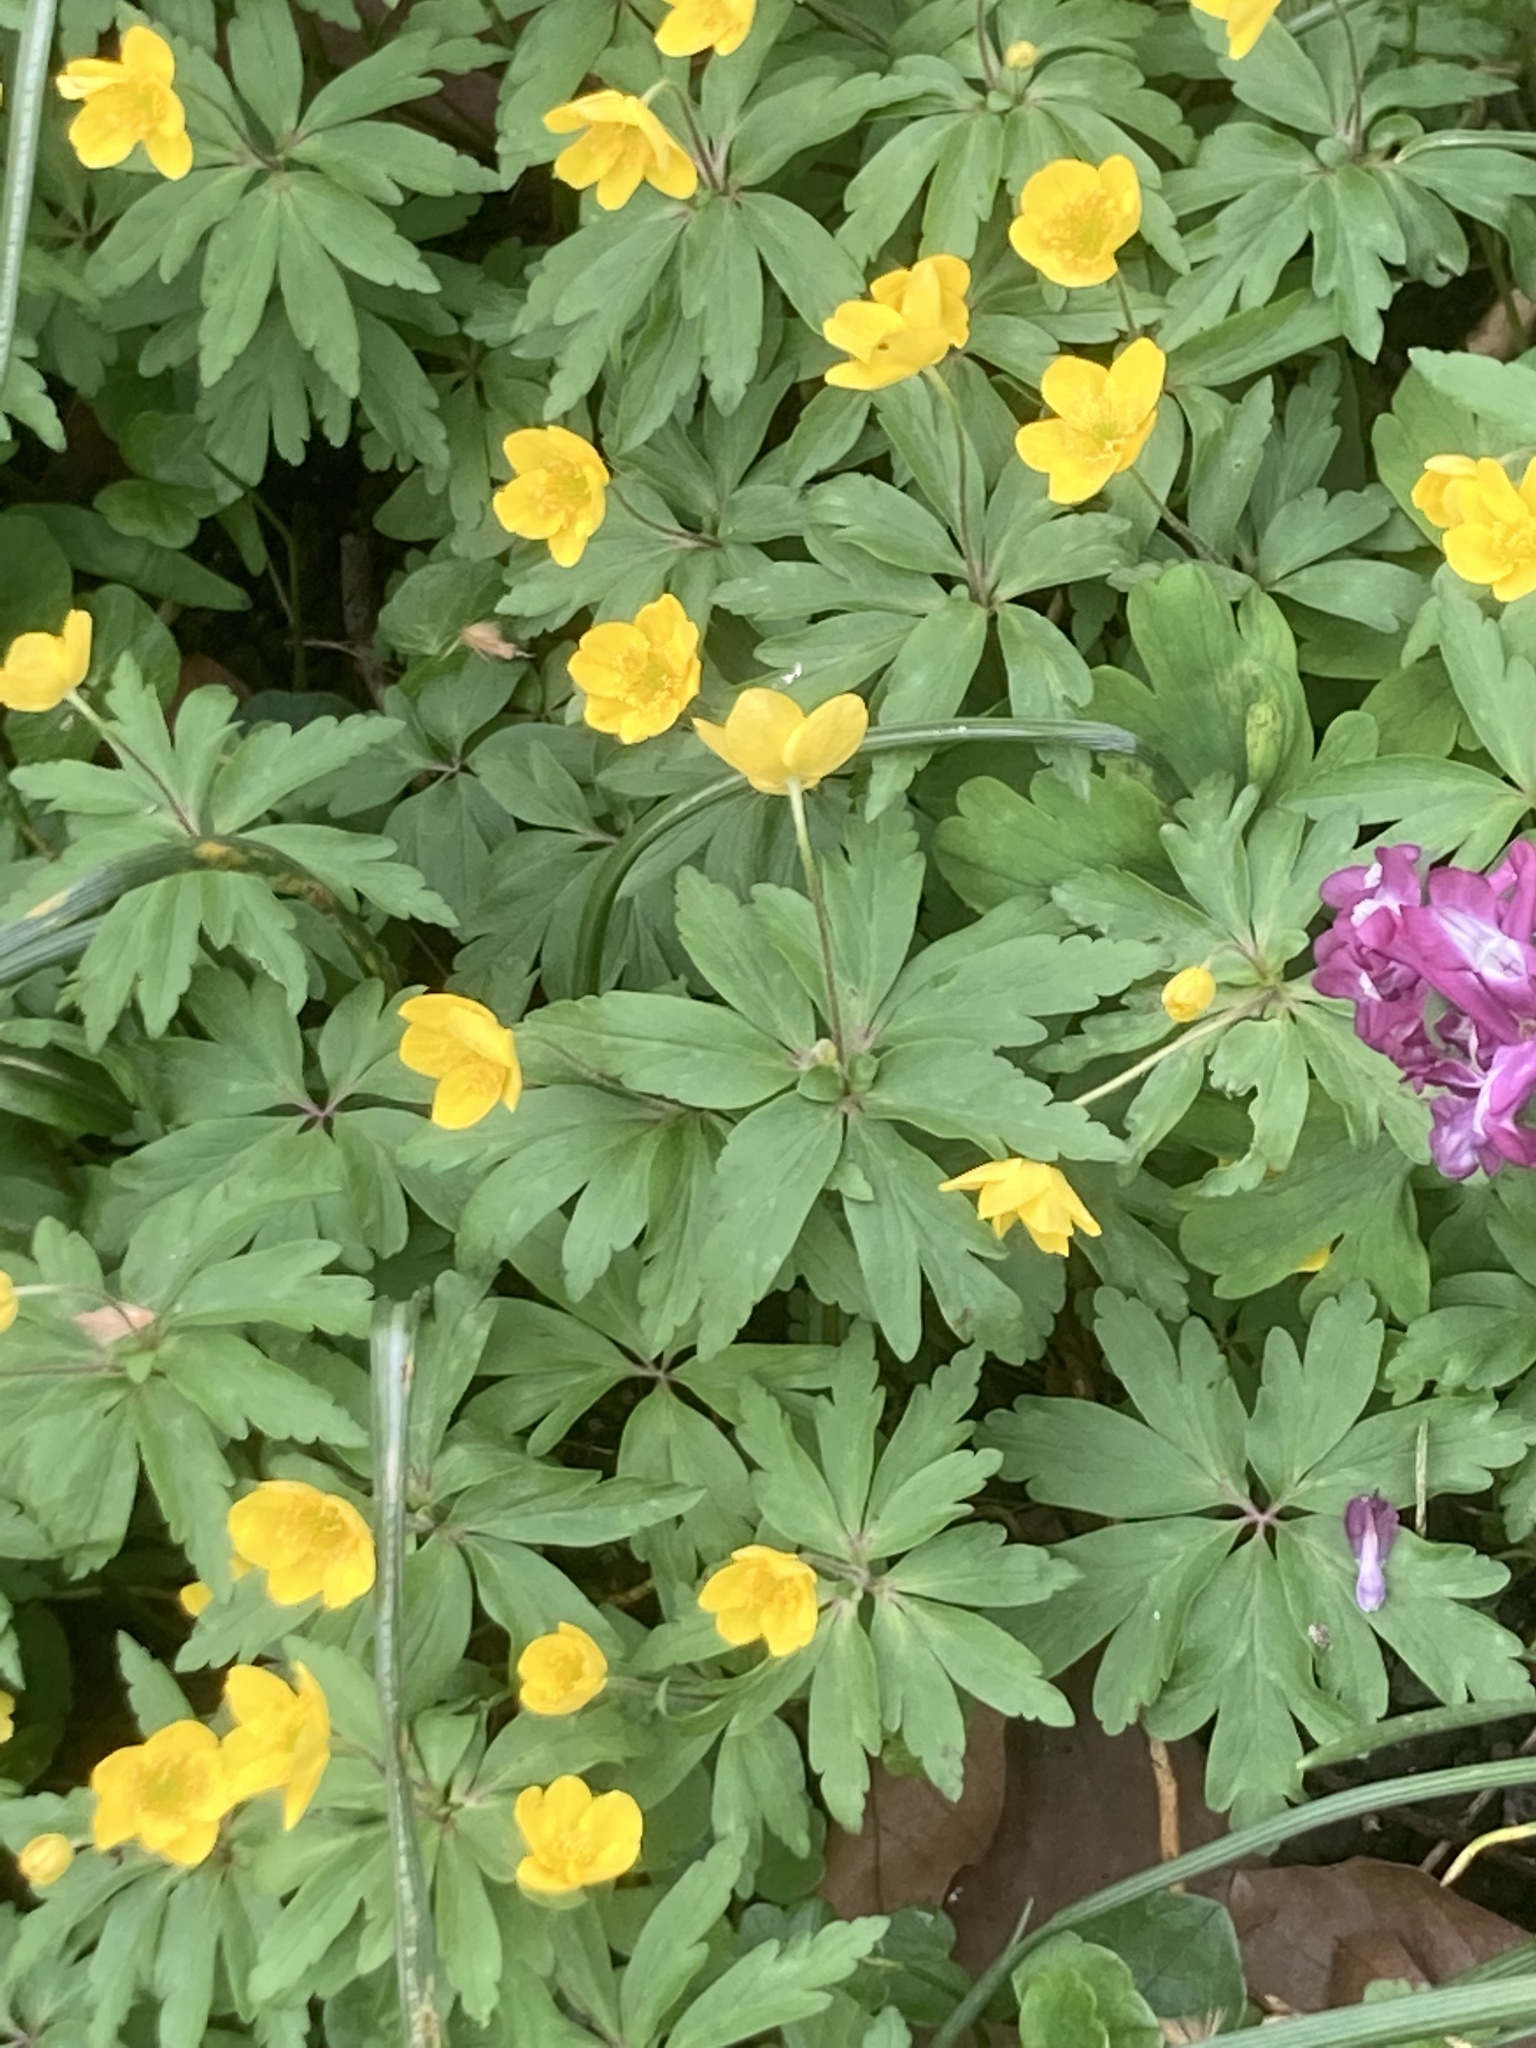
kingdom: Plantae
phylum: Tracheophyta
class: Magnoliopsida
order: Ranunculales
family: Ranunculaceae
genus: Anemone
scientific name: Anemone ranunculoides
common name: Yellow anemone
